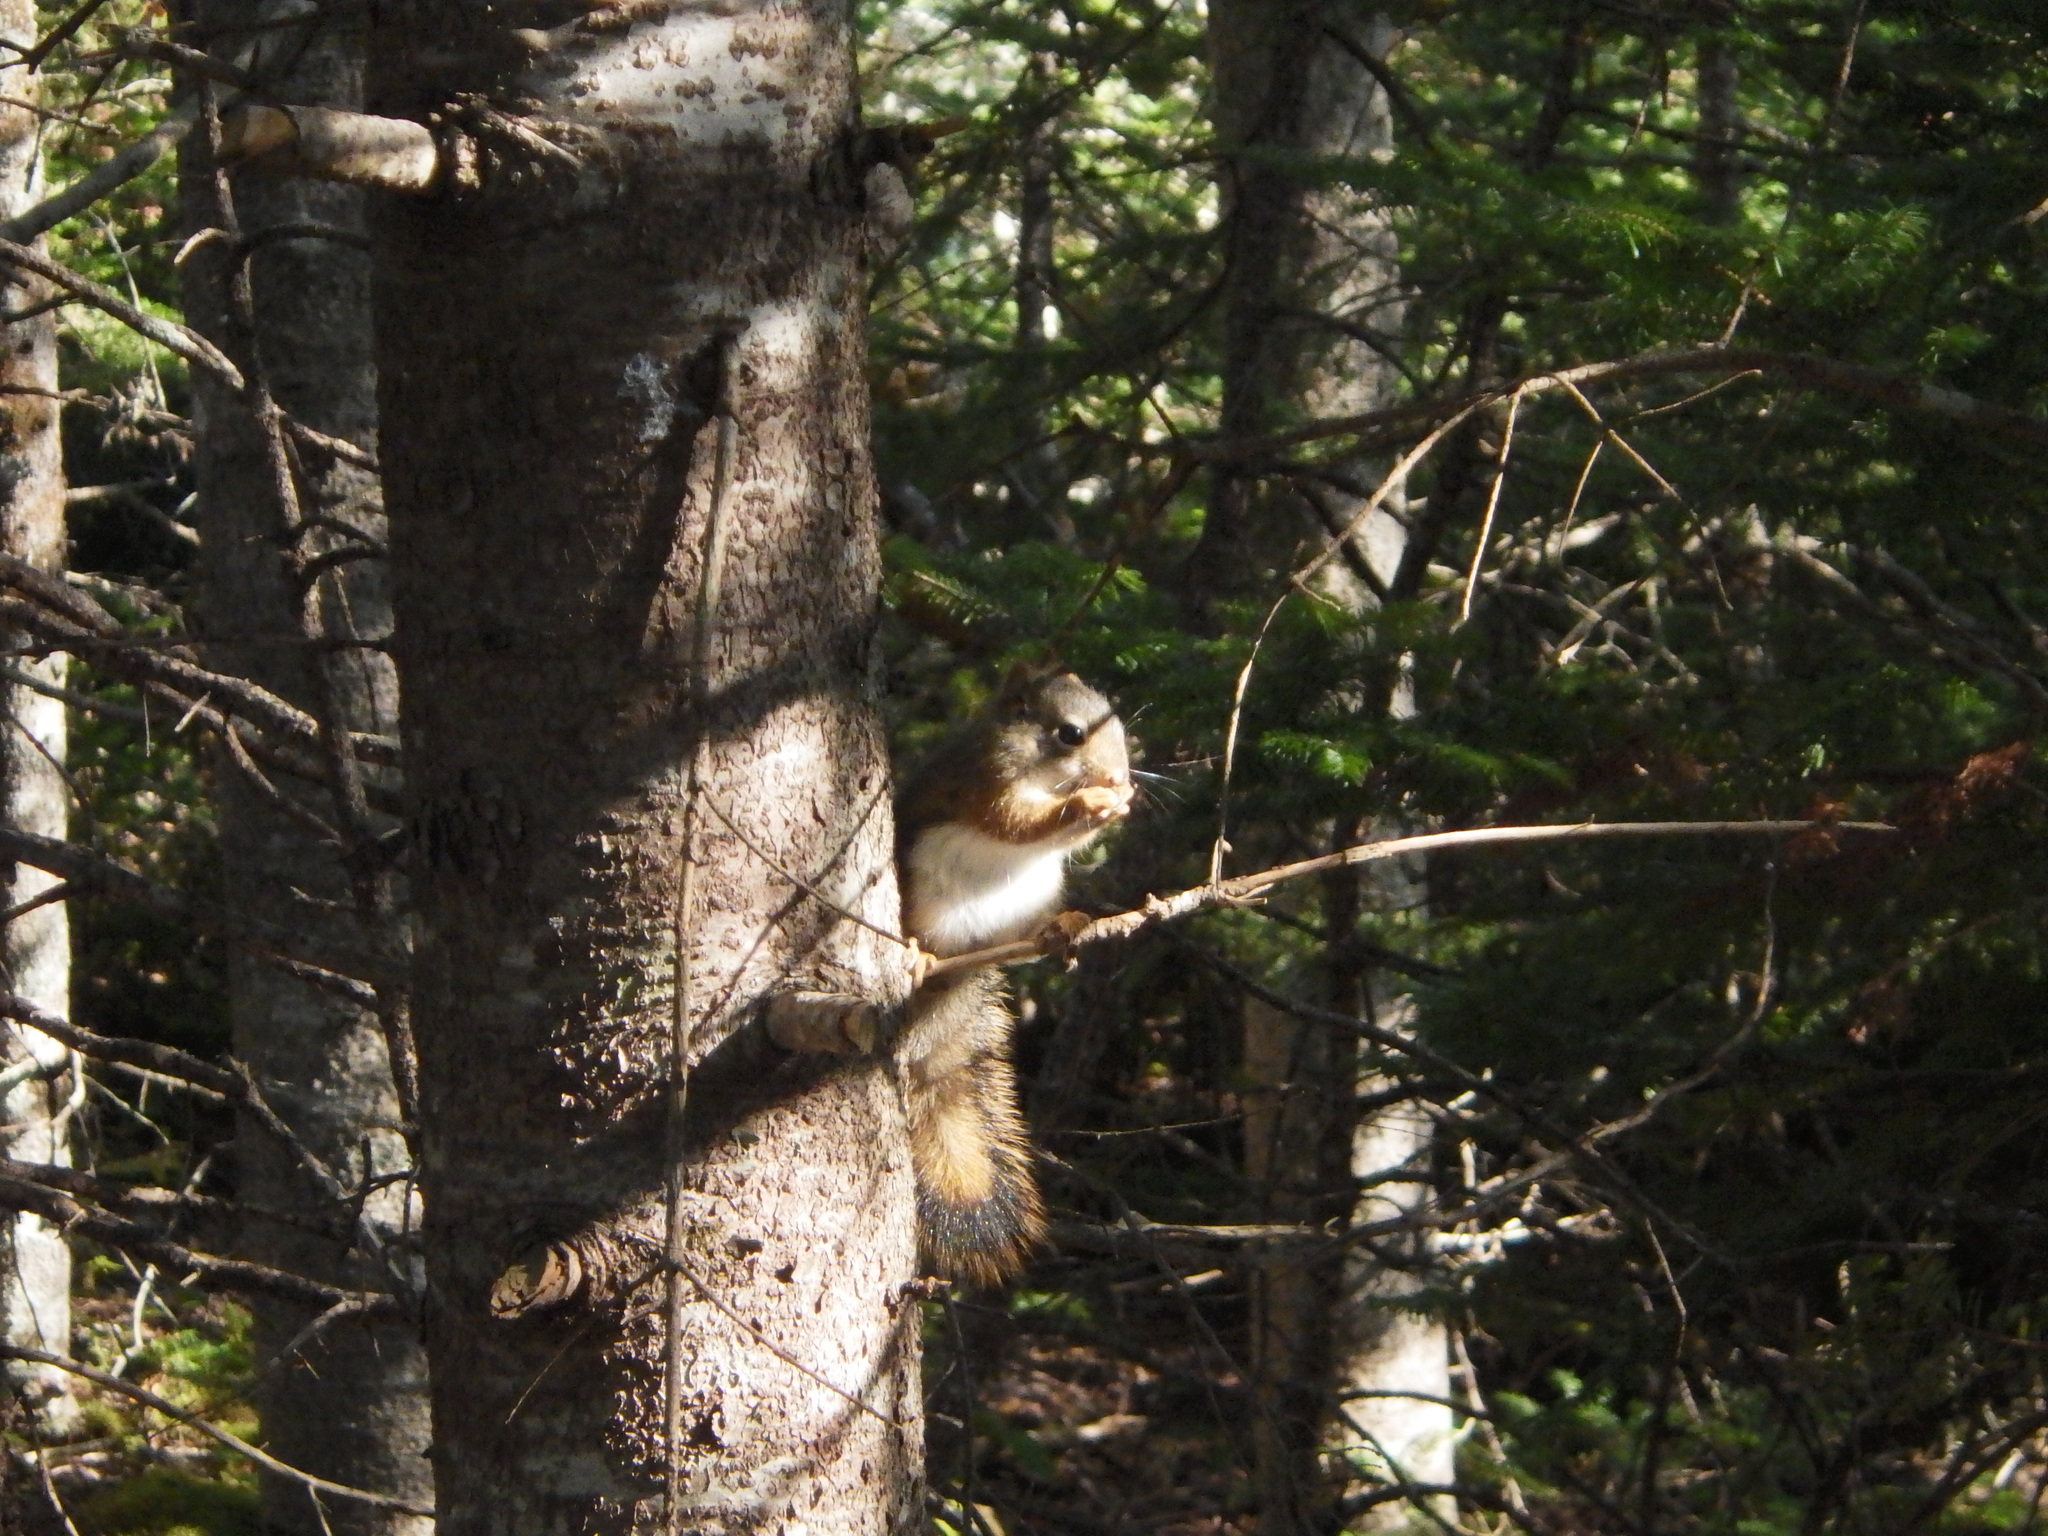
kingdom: Animalia
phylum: Chordata
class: Mammalia
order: Rodentia
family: Sciuridae
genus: Tamiasciurus
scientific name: Tamiasciurus hudsonicus
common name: Red squirrel
